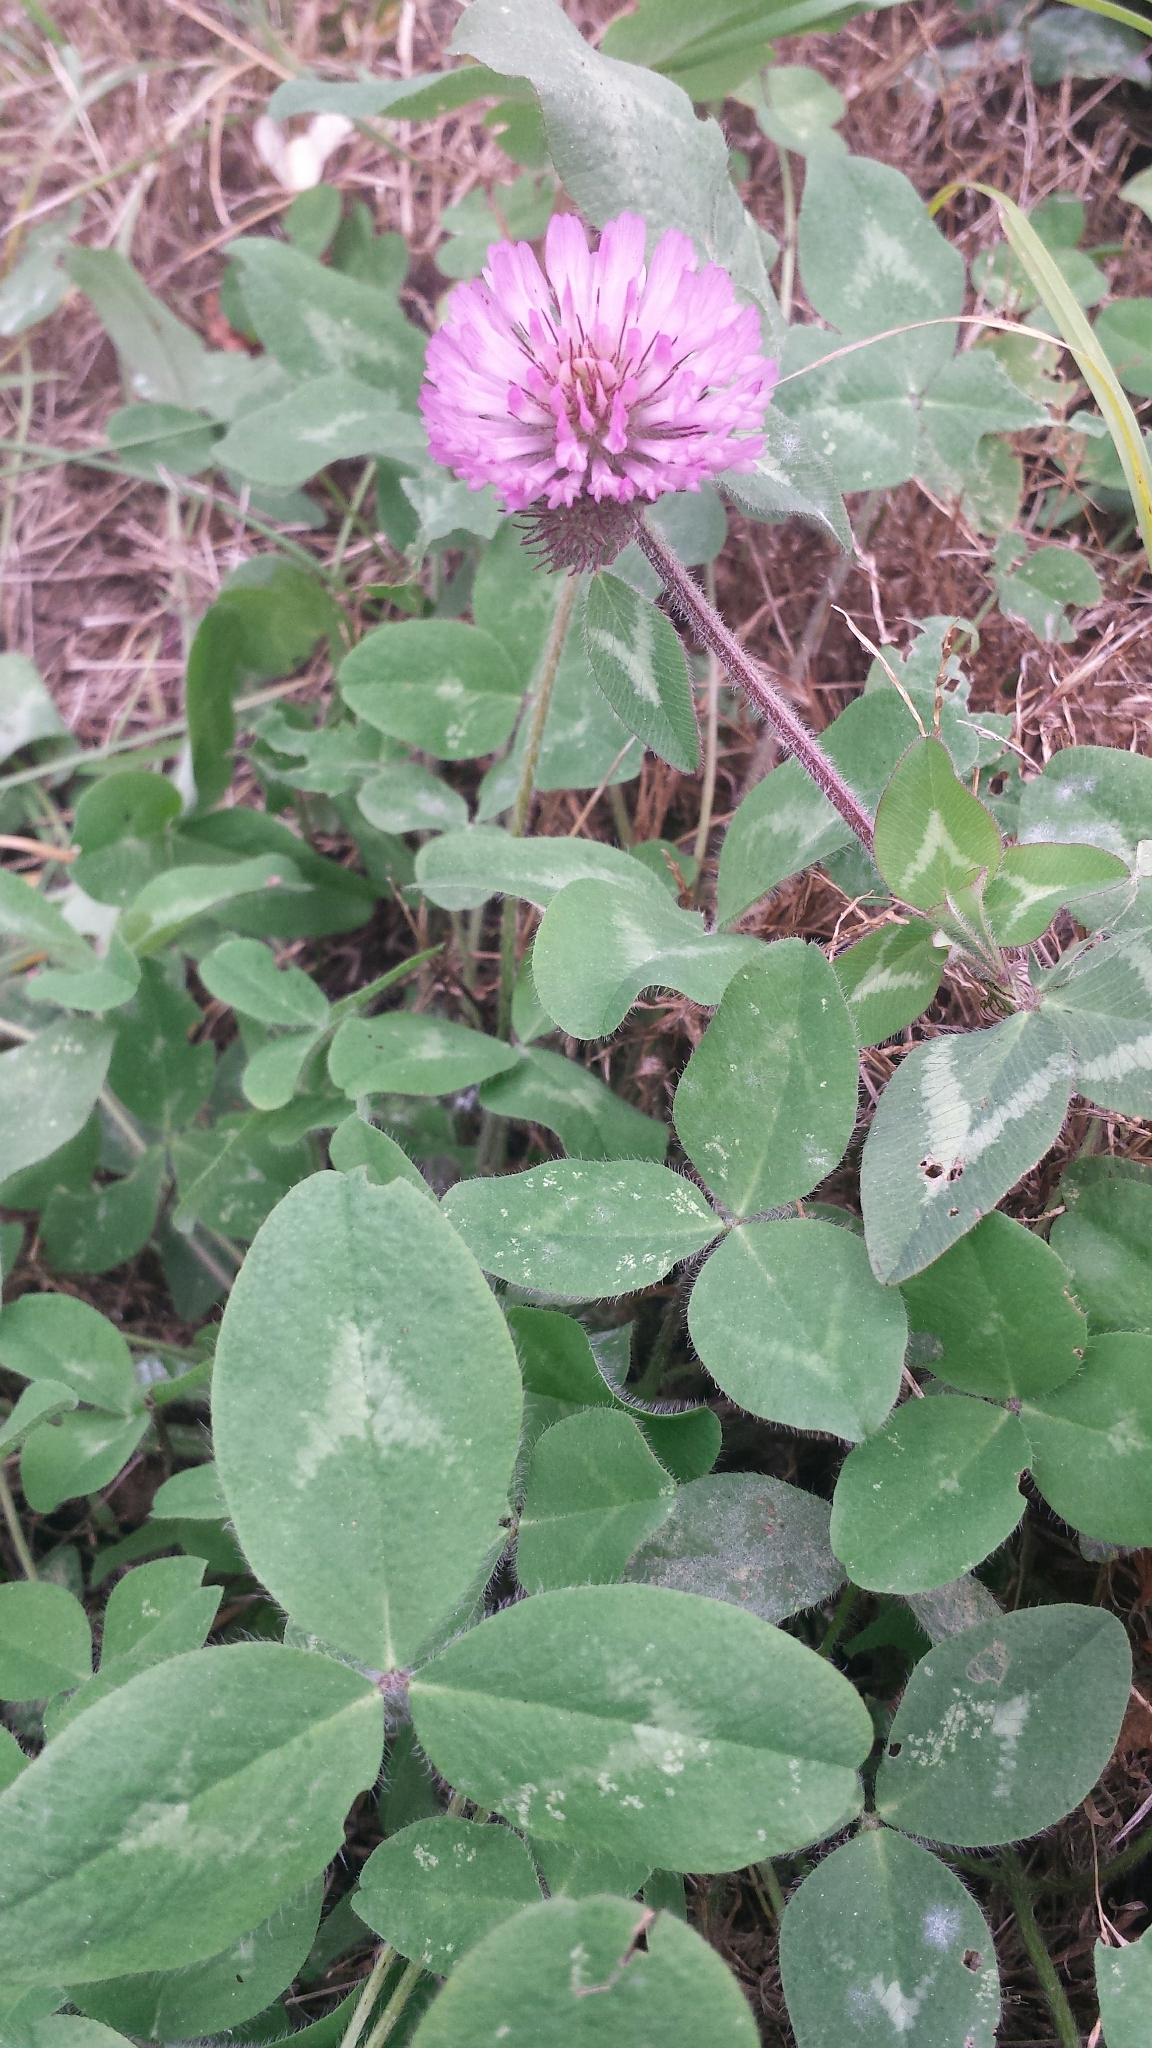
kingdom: Plantae
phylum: Tracheophyta
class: Magnoliopsida
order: Fabales
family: Fabaceae
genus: Trifolium
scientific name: Trifolium pratense
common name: Red clover
